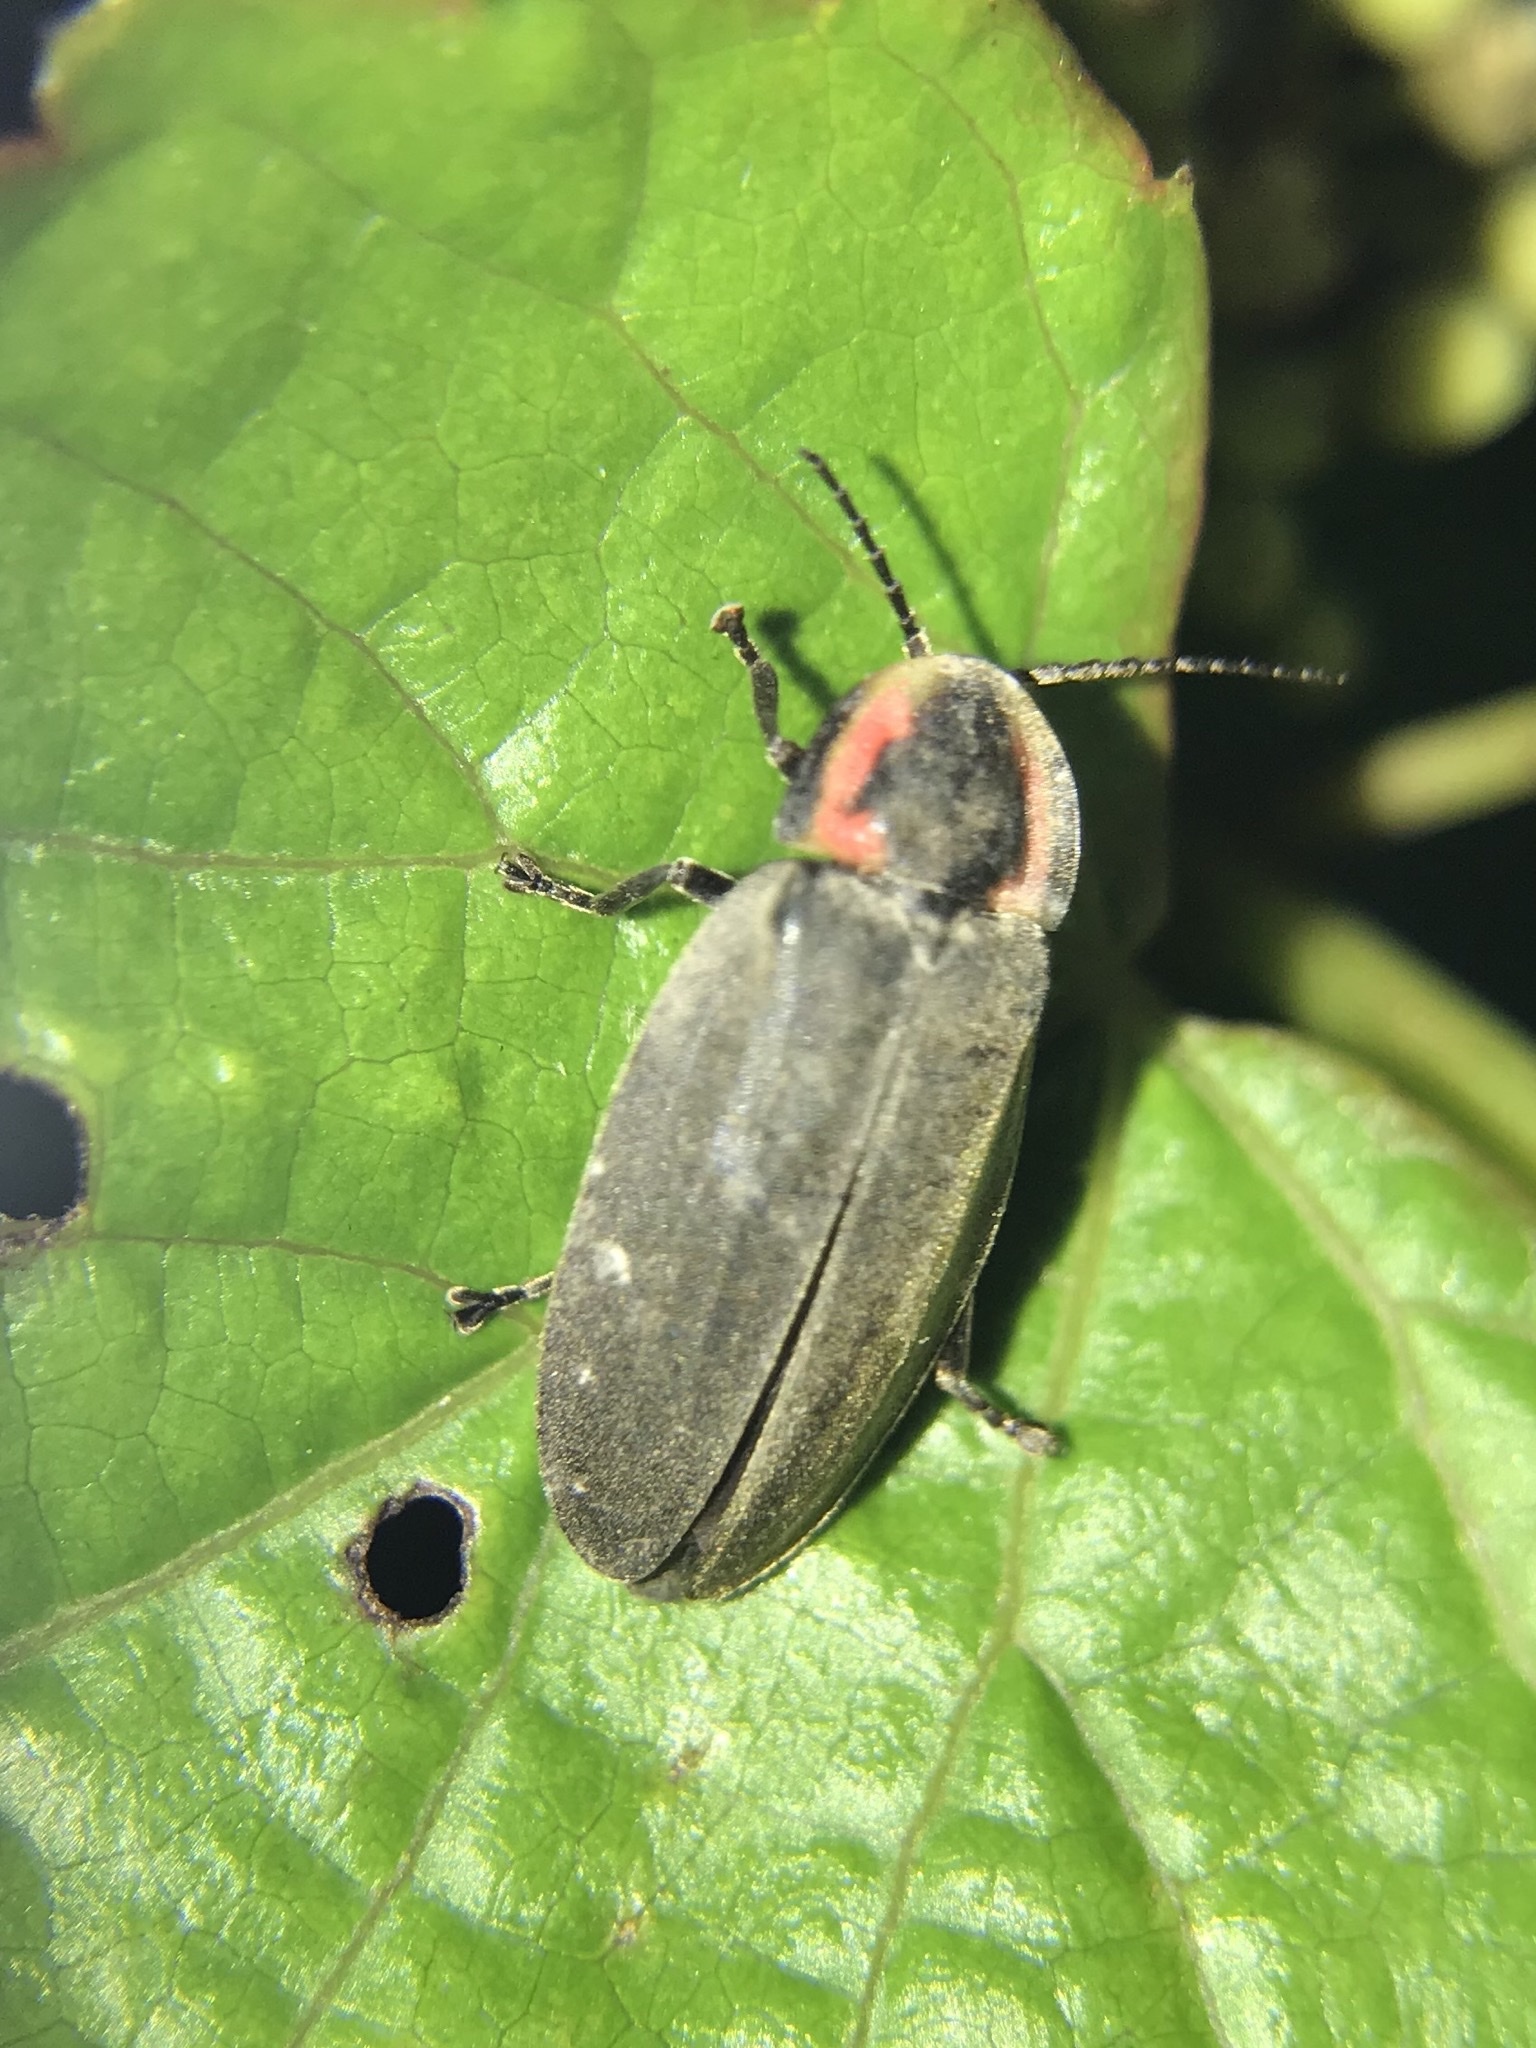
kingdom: Animalia
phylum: Arthropoda
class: Insecta
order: Coleoptera
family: Lampyridae
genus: Photinus
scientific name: Photinus corrusca
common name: Winter firefly
